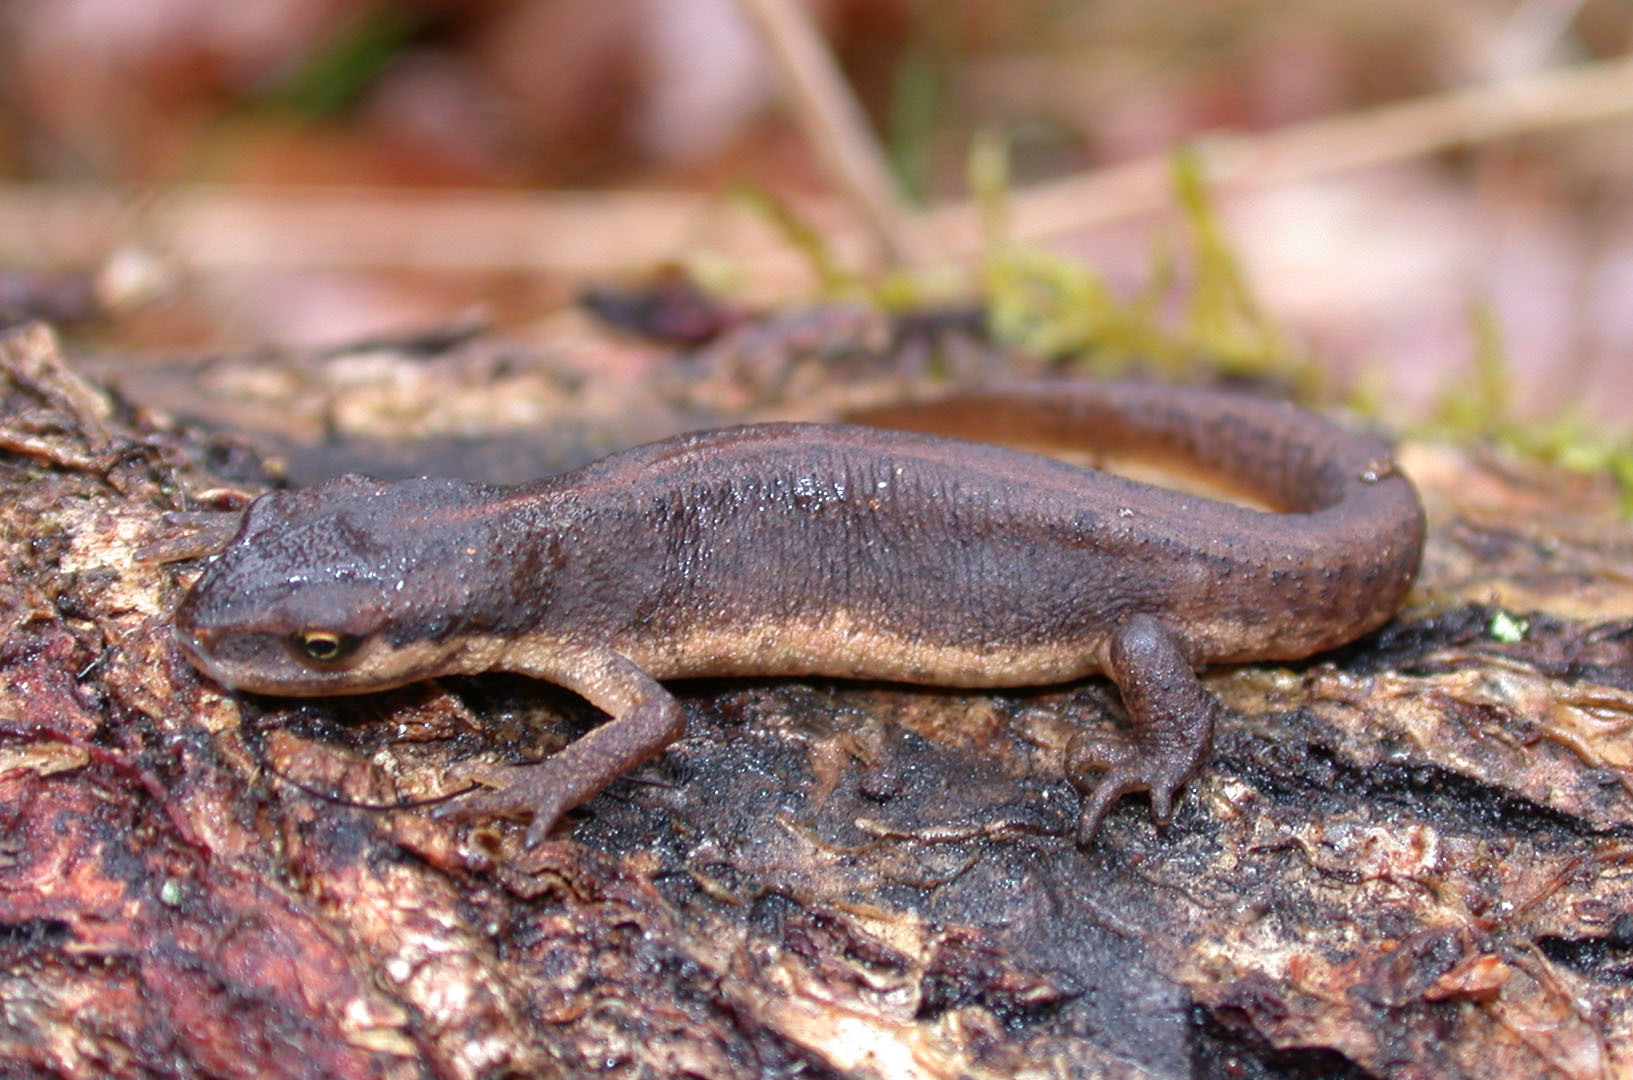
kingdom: Animalia
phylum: Chordata
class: Amphibia
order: Caudata
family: Salamandridae
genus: Lissotriton
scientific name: Lissotriton vulgaris
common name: Smooth newt
